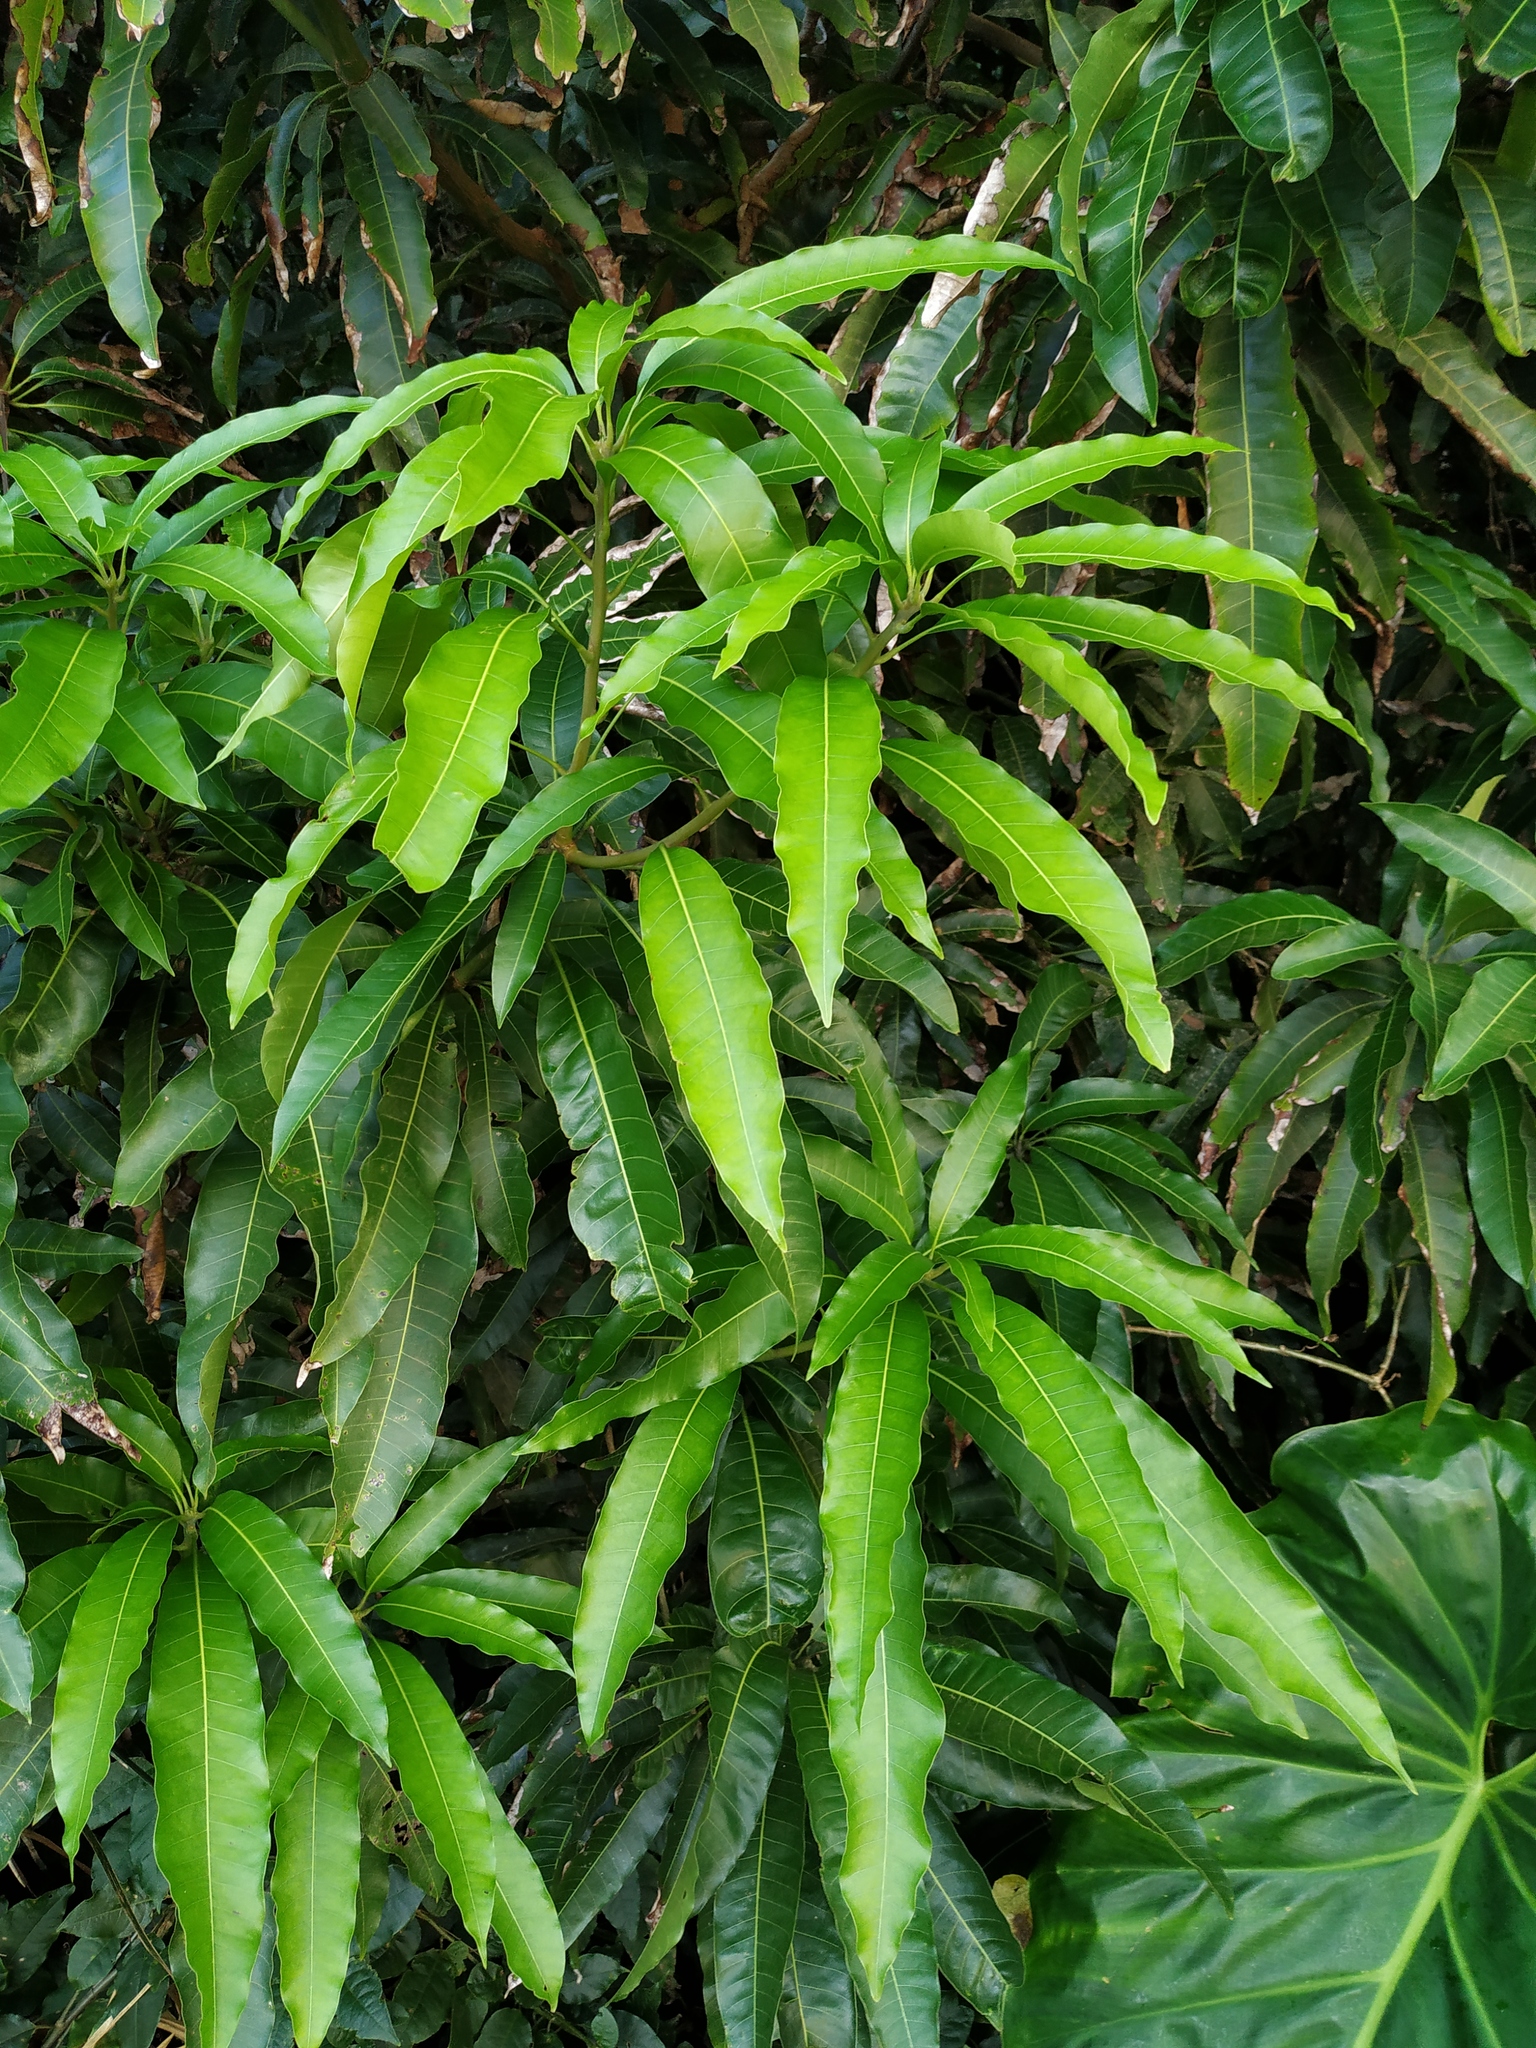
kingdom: Plantae
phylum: Tracheophyta
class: Magnoliopsida
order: Sapindales
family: Anacardiaceae
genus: Mangifera
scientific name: Mangifera indica
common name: Mango
